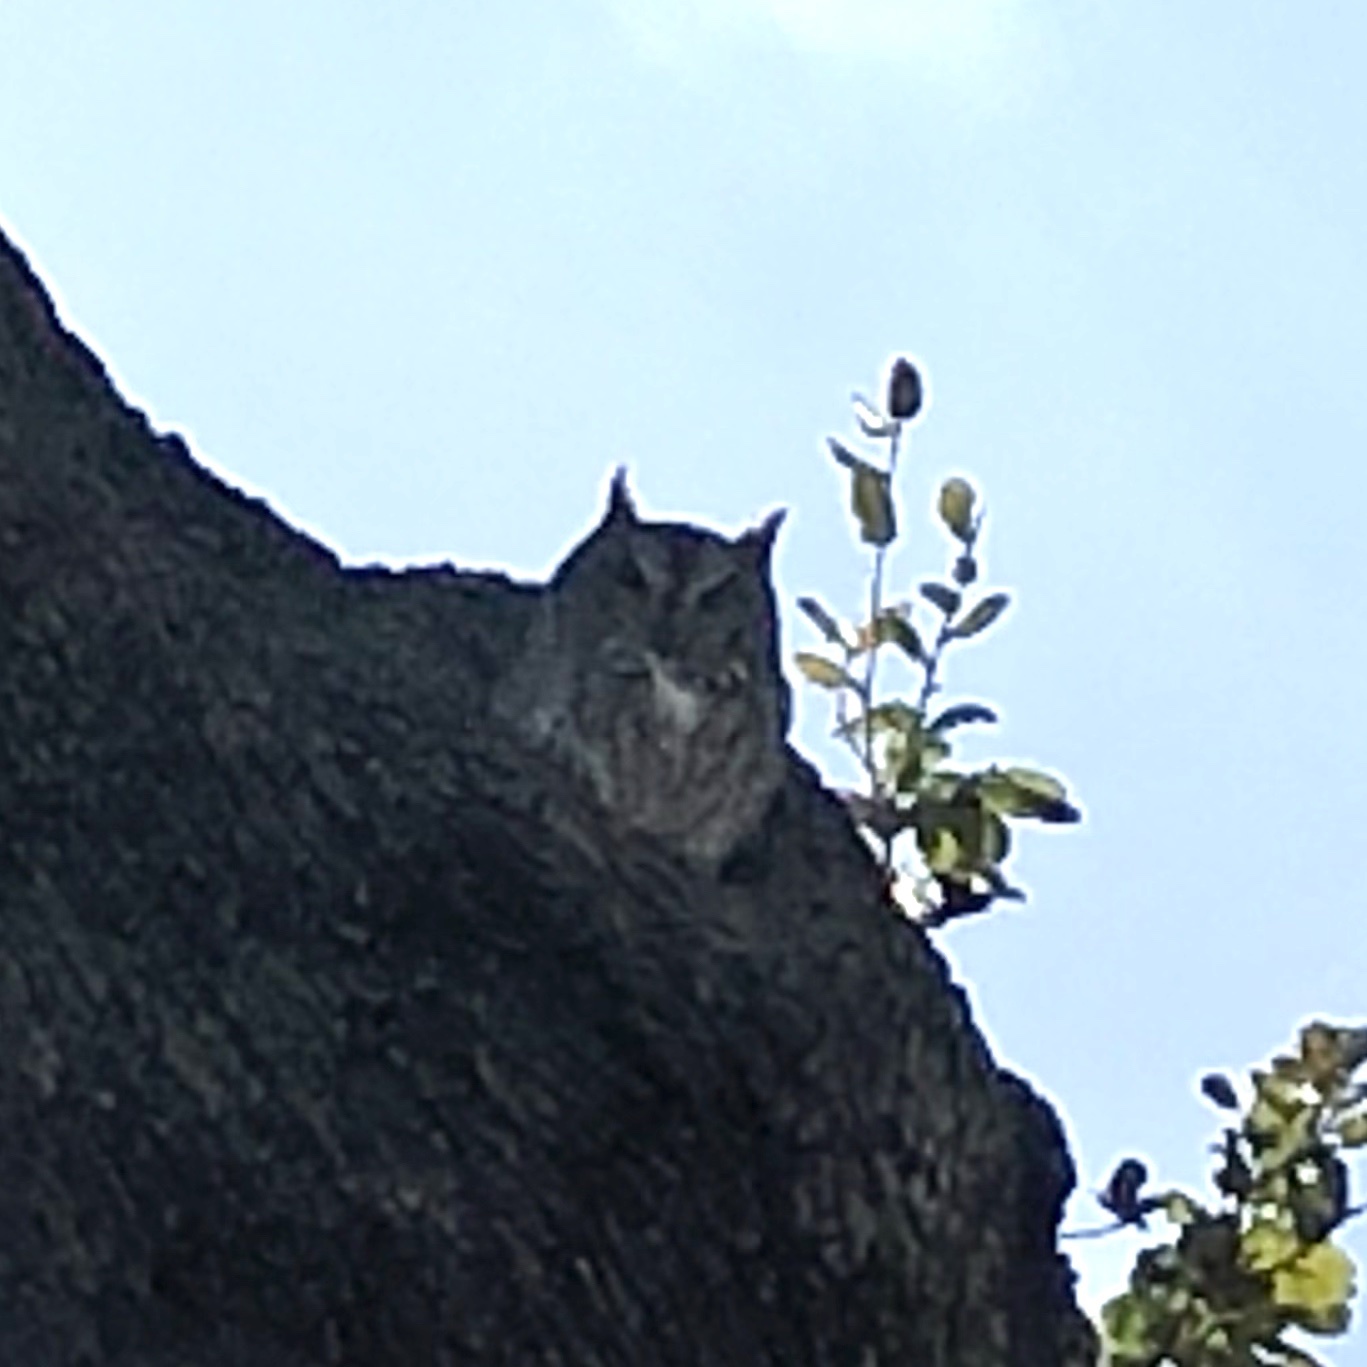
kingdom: Animalia
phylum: Chordata
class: Aves
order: Strigiformes
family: Strigidae
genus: Megascops
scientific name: Megascops asio
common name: Eastern screech-owl
